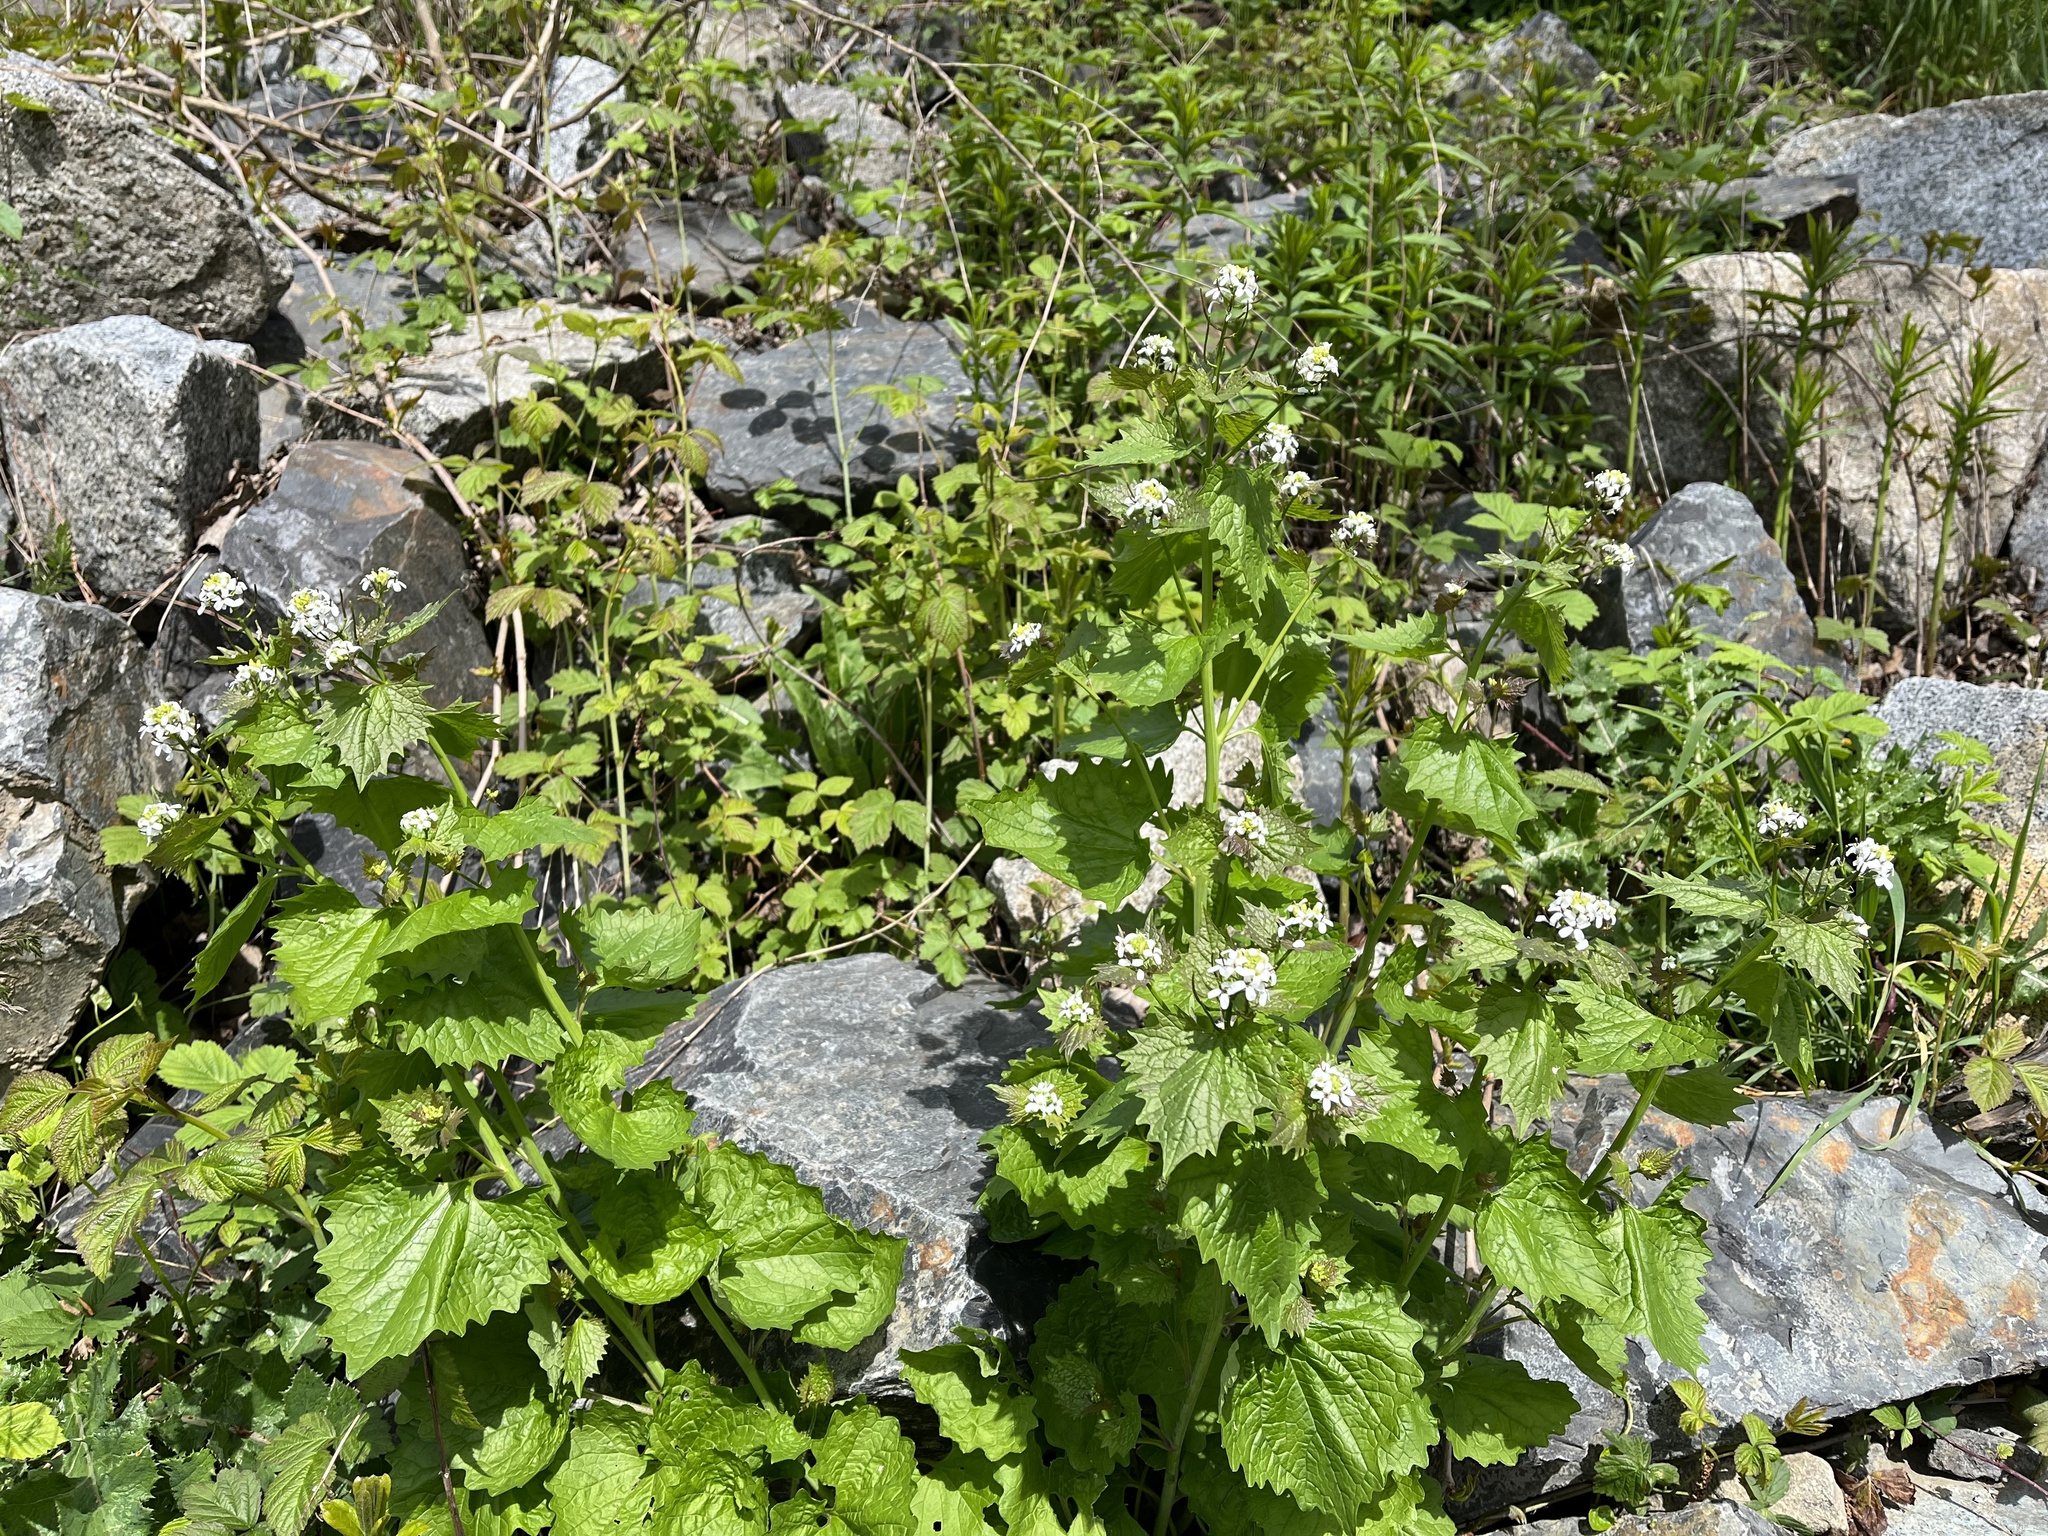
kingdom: Plantae
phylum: Tracheophyta
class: Magnoliopsida
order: Brassicales
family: Brassicaceae
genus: Alliaria
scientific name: Alliaria petiolata
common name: Garlic mustard
